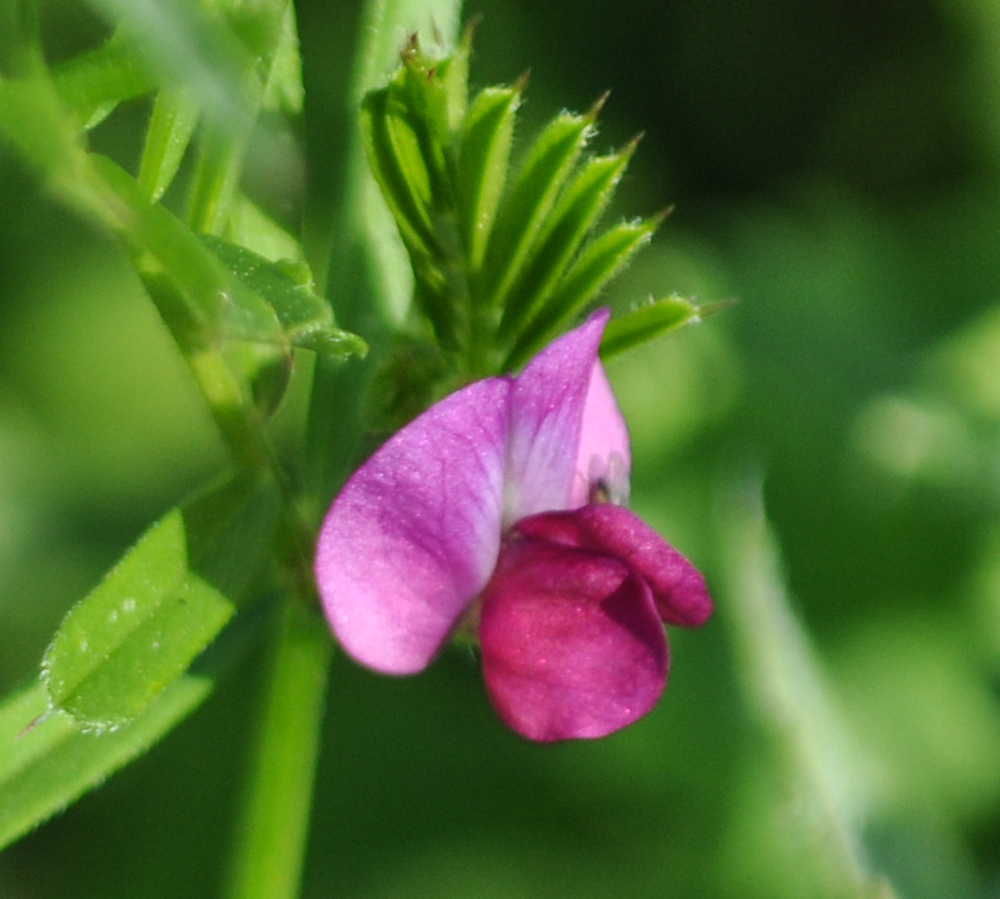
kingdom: Plantae
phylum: Tracheophyta
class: Magnoliopsida
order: Fabales
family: Fabaceae
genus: Vicia
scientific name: Vicia sativa
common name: Garden vetch
